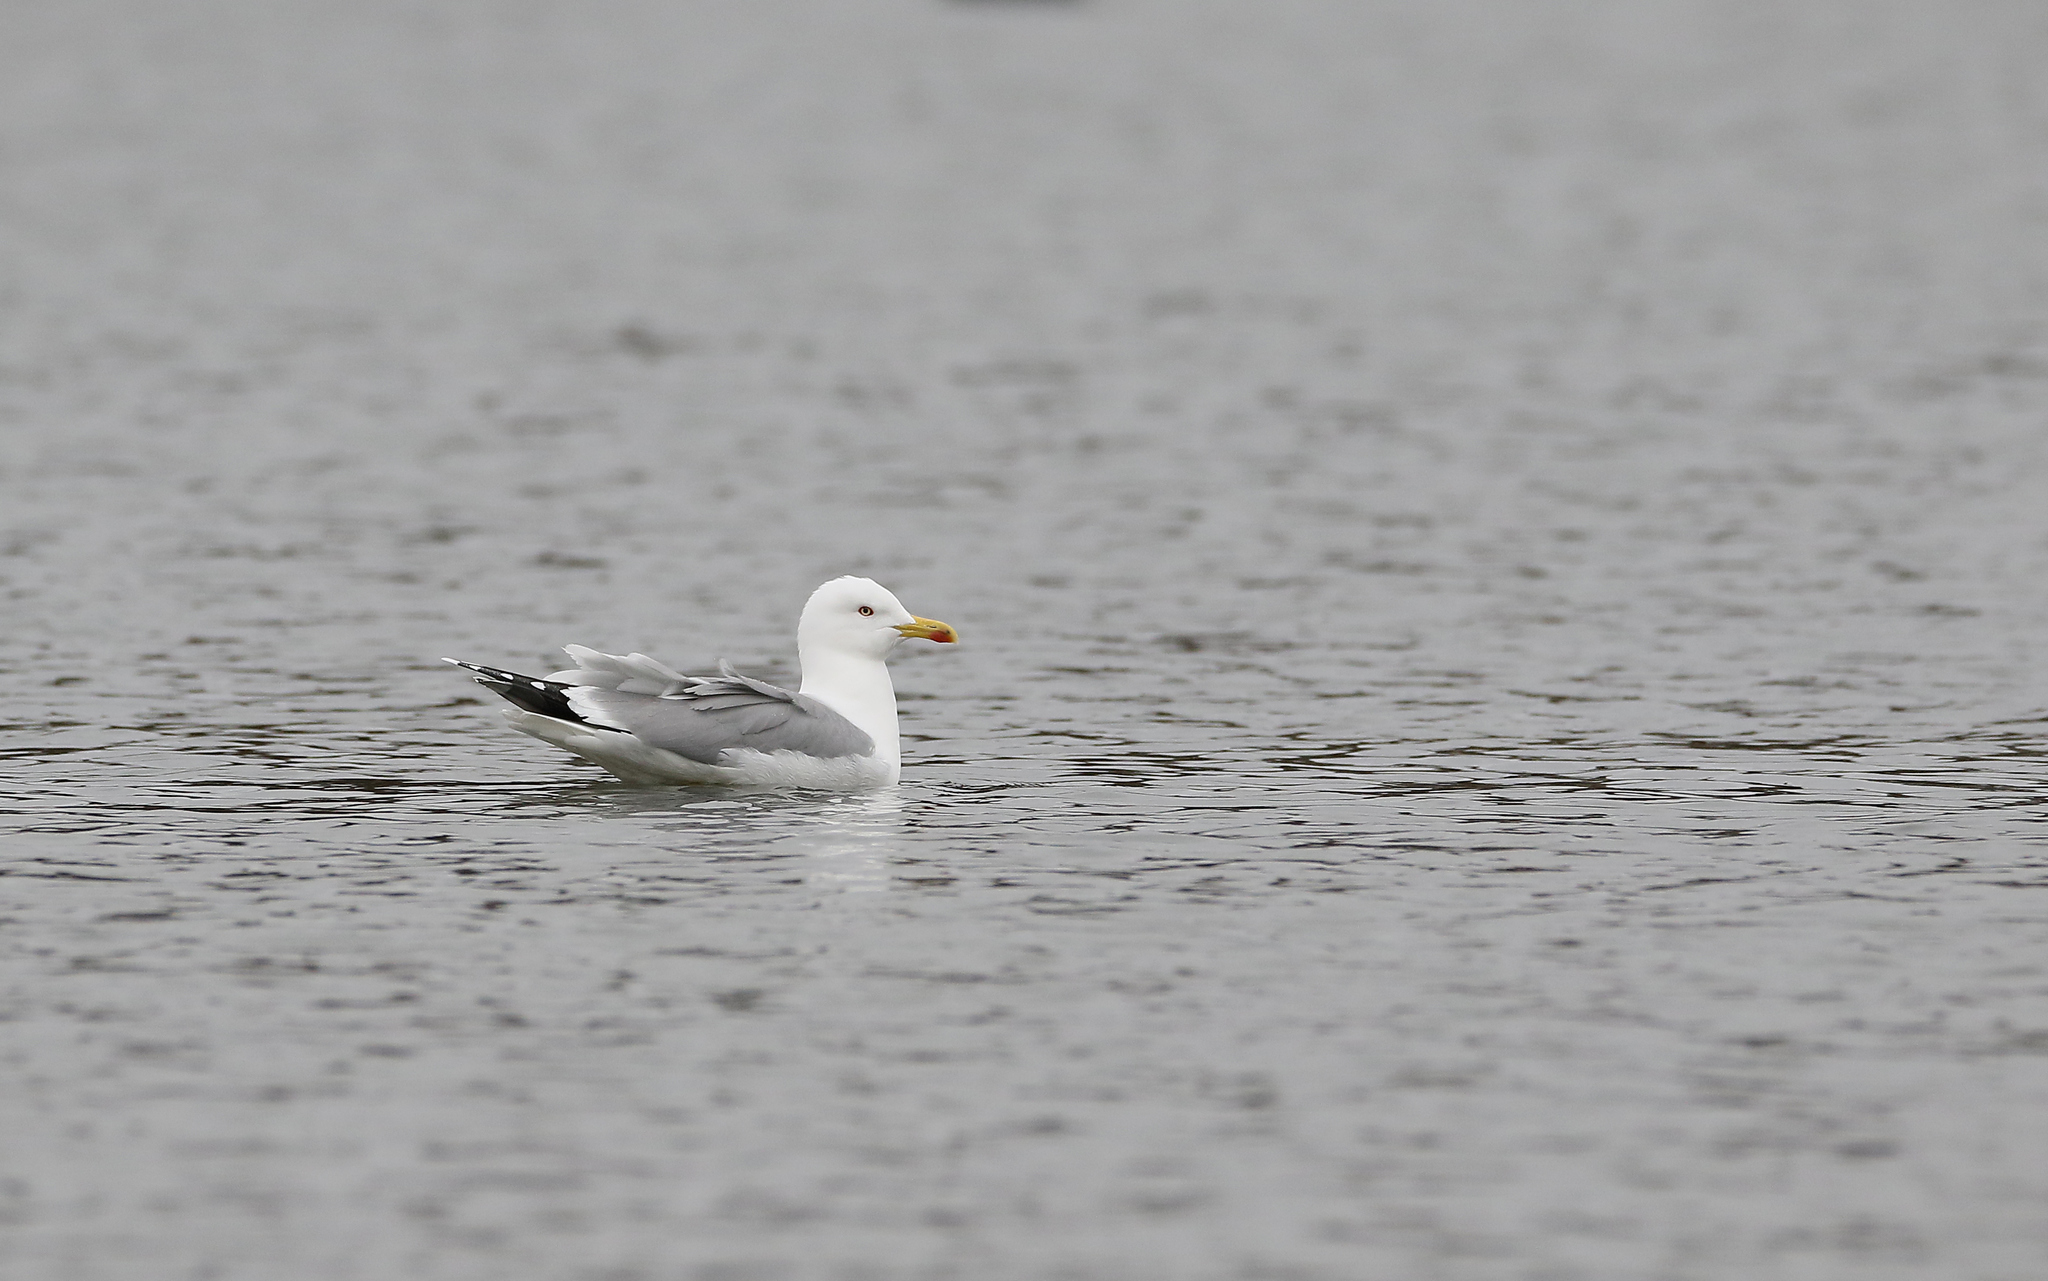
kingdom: Animalia
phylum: Chordata
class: Aves
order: Charadriiformes
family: Laridae
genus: Larus
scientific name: Larus michahellis
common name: Yellow-legged gull
